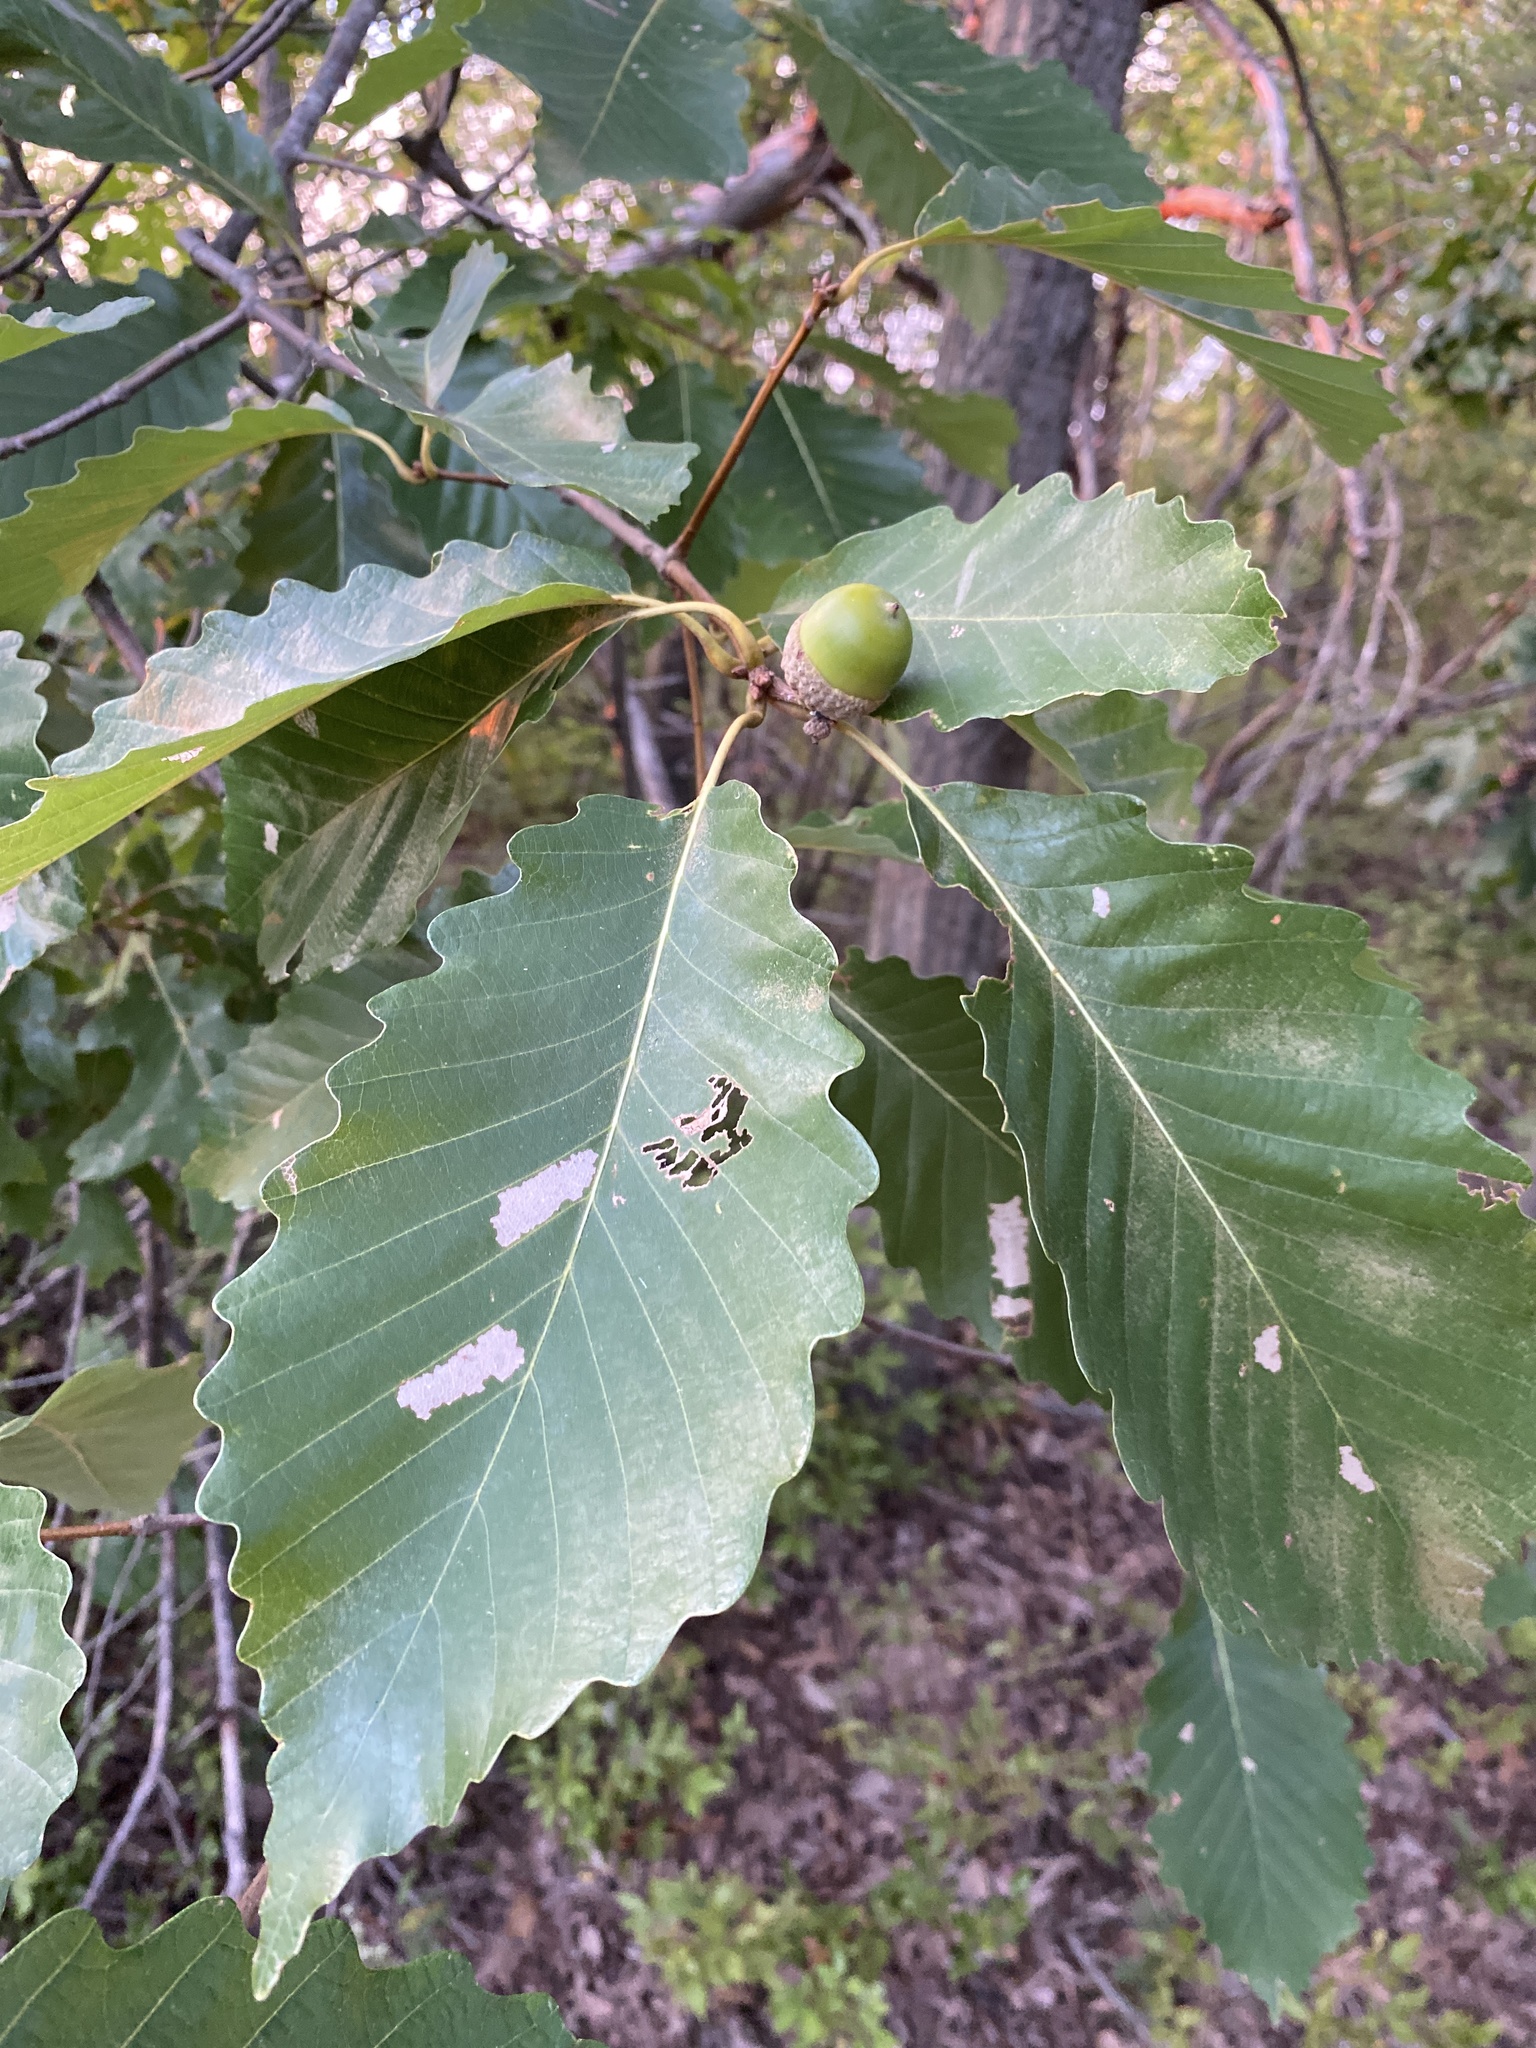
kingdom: Plantae
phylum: Tracheophyta
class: Magnoliopsida
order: Fagales
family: Fagaceae
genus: Quercus
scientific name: Quercus montana
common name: Chestnut oak
